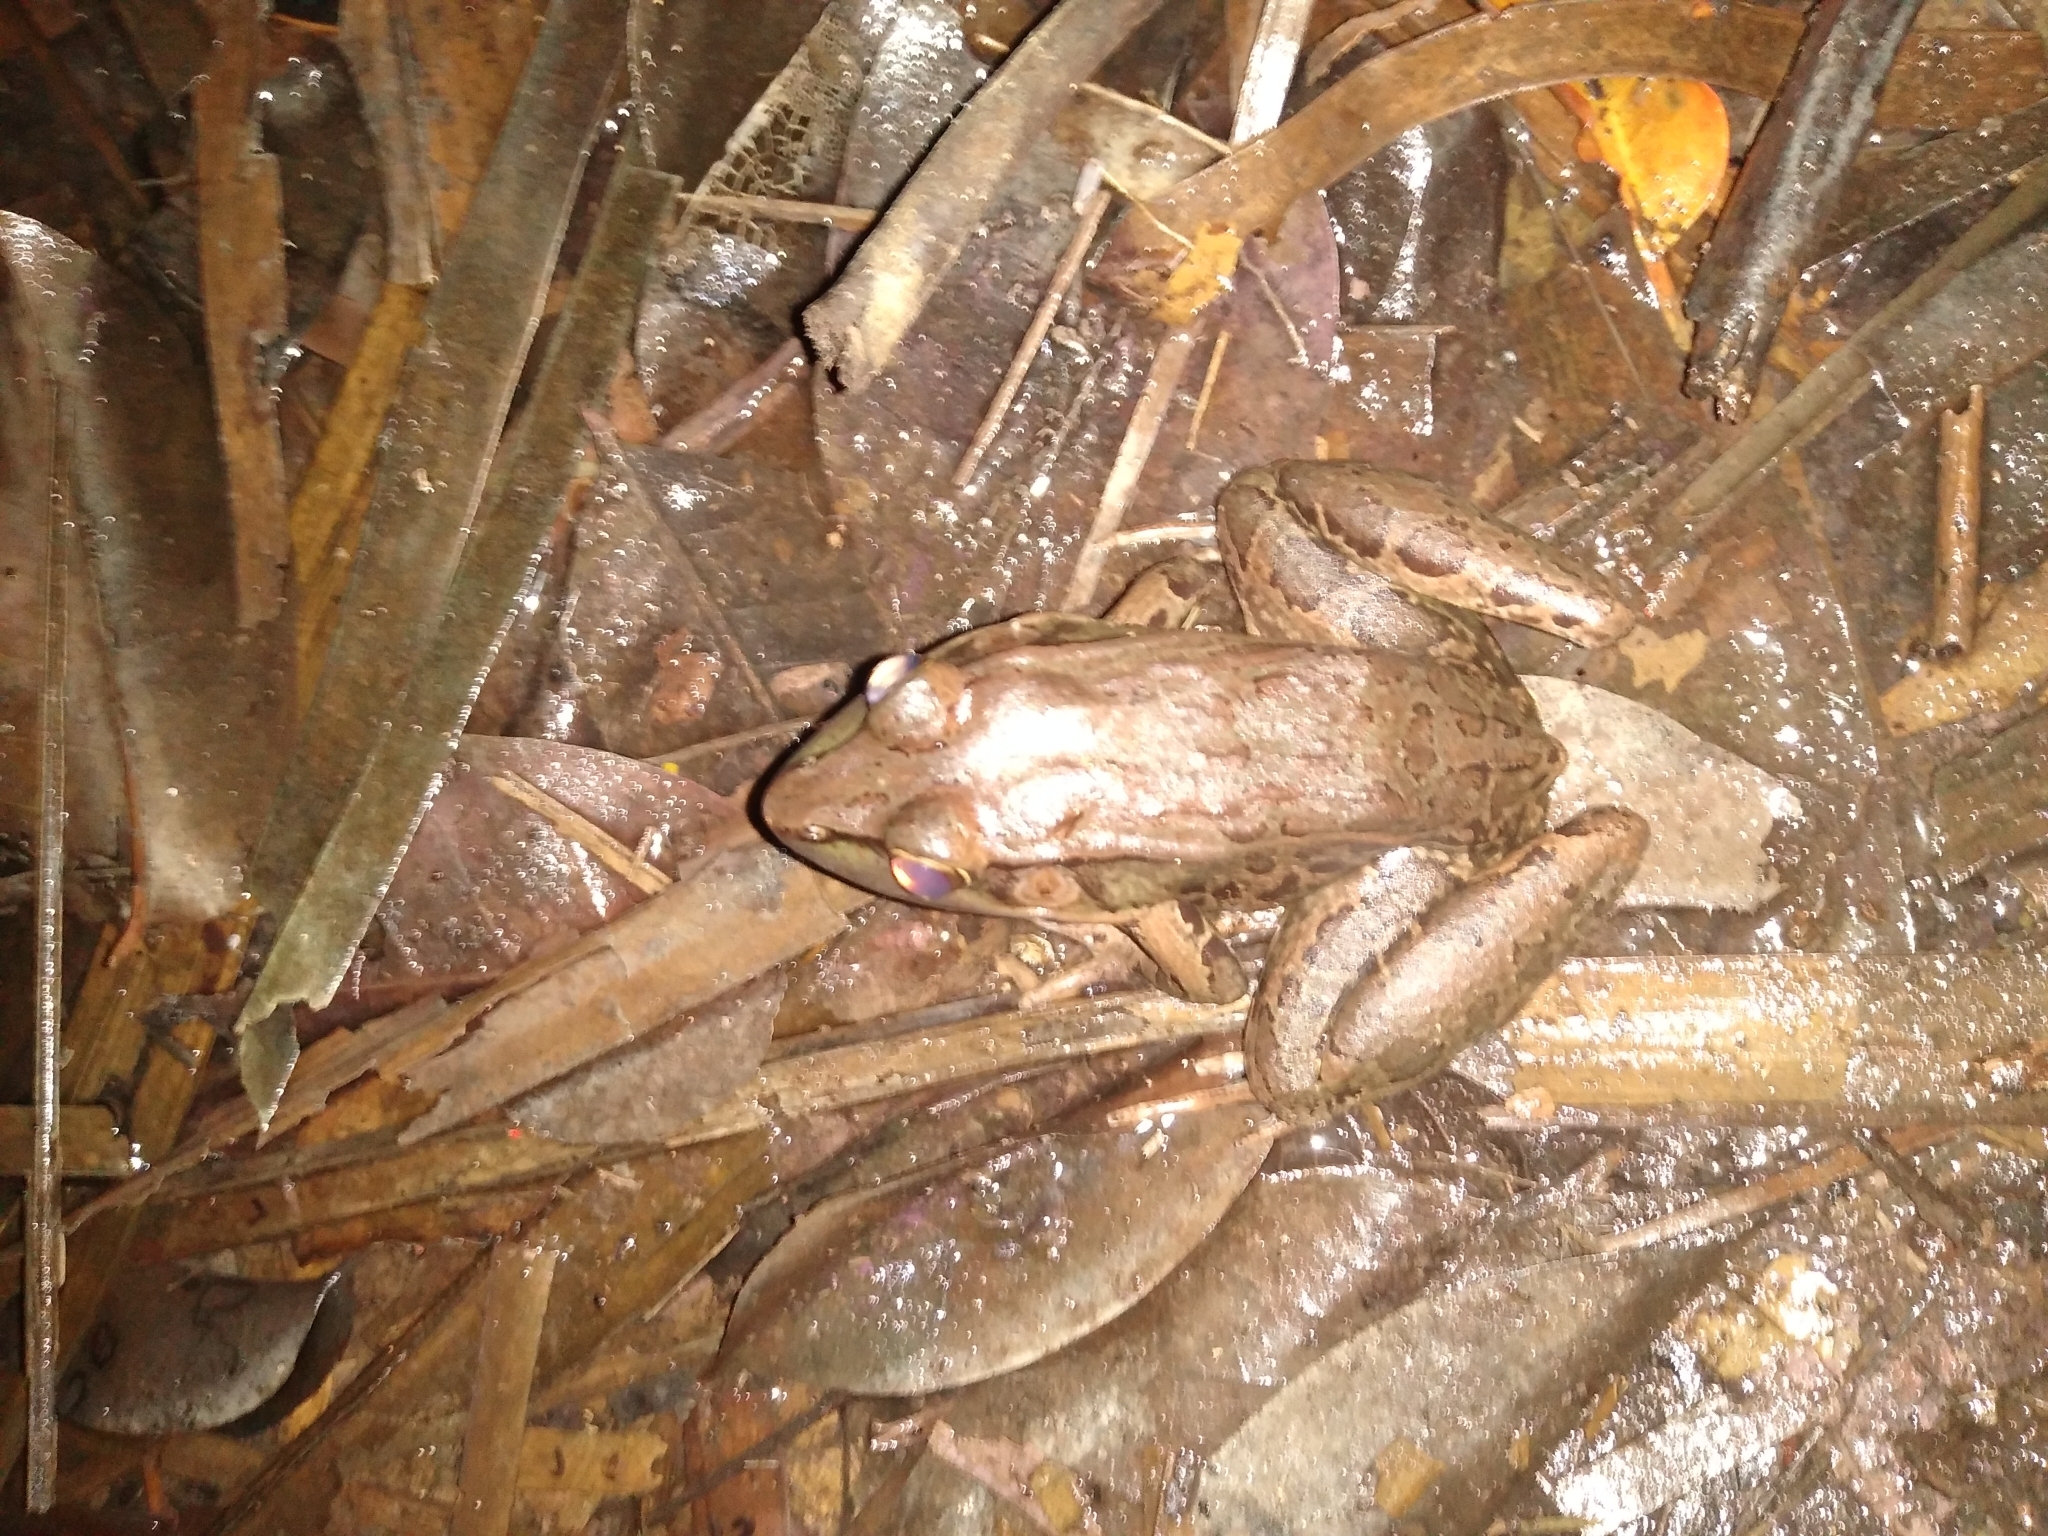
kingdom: Animalia
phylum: Chordata
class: Amphibia
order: Anura
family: Ranidae
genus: Lithobates
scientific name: Lithobates brownorum
